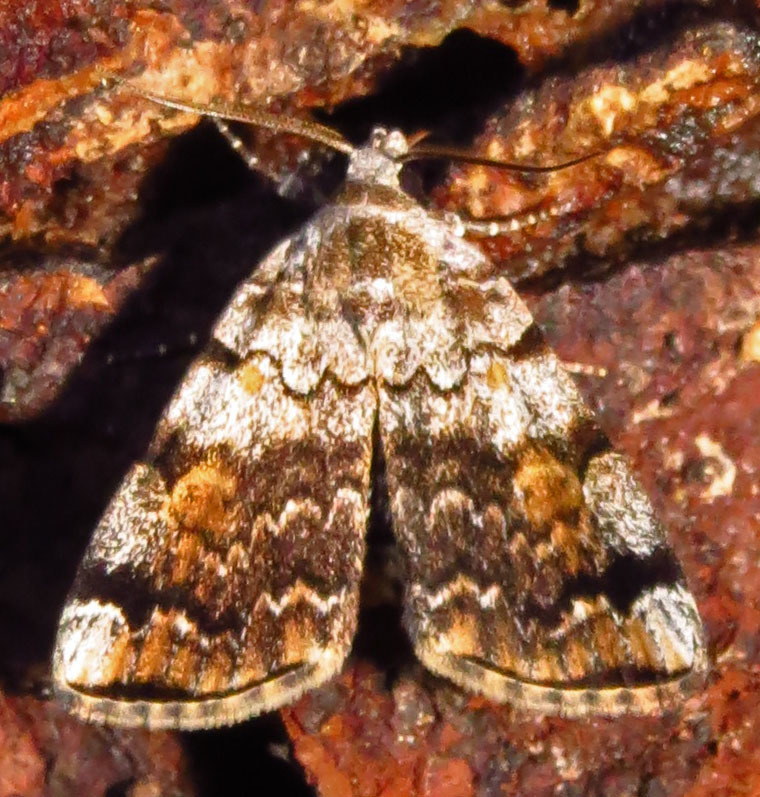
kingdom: Animalia
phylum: Arthropoda
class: Insecta
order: Lepidoptera
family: Erebidae
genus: Idia
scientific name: Idia americalis
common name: American idia moth
